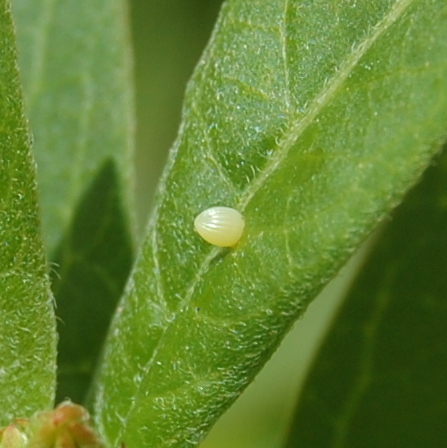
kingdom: Animalia
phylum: Arthropoda
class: Insecta
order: Lepidoptera
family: Nymphalidae
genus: Danaus
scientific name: Danaus erippus
